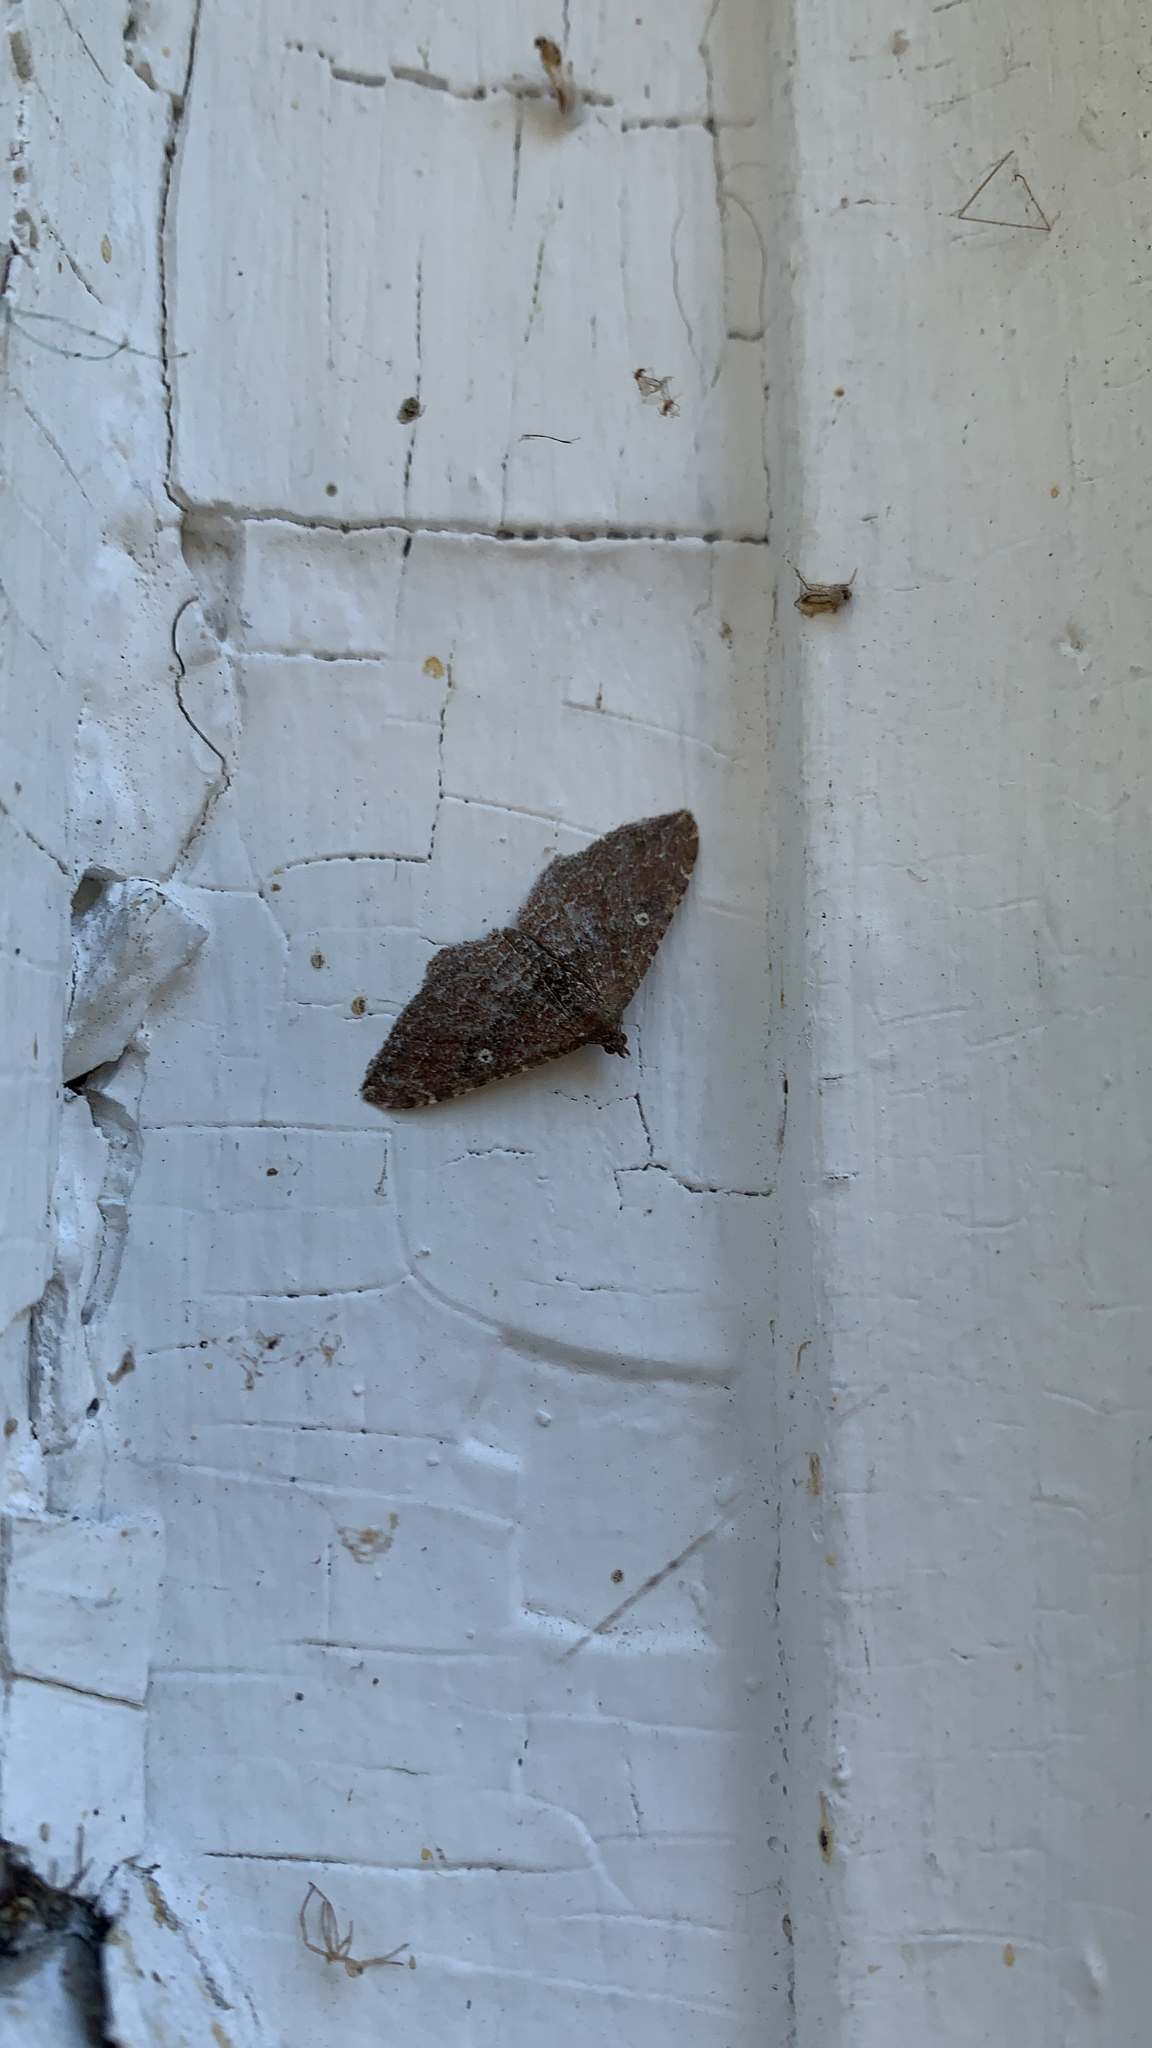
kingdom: Animalia
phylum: Arthropoda
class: Insecta
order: Lepidoptera
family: Geometridae
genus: Orthonama
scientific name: Orthonama obstipata
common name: The gem
